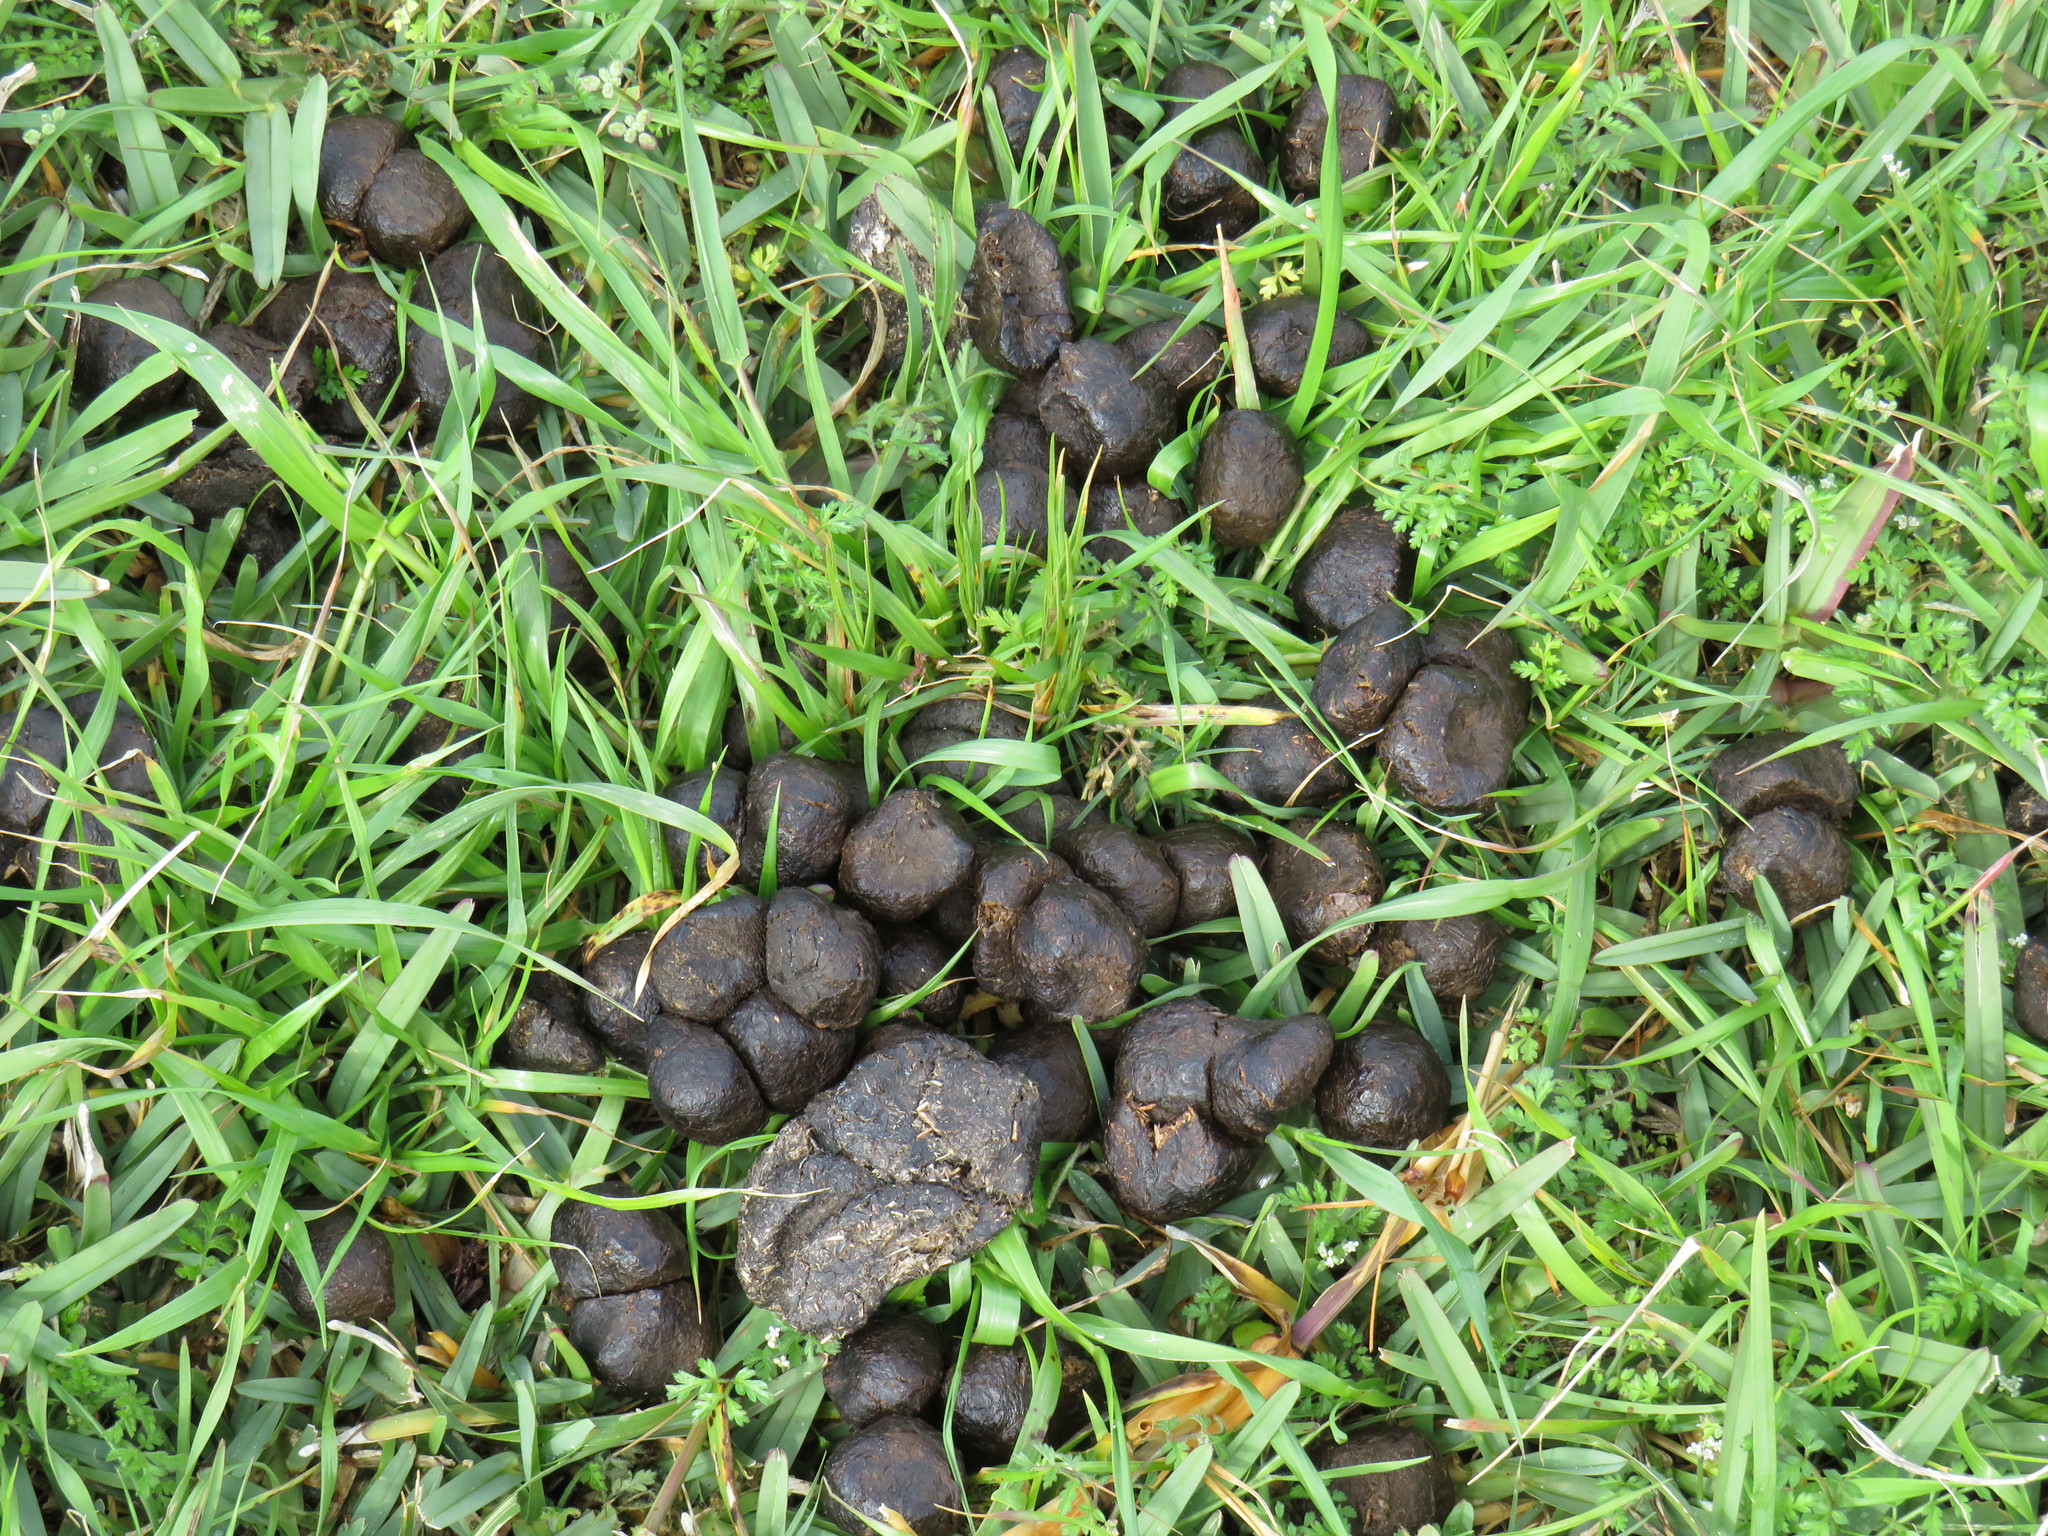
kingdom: Animalia
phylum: Chordata
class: Mammalia
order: Artiodactyla
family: Bovidae
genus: Taurotragus
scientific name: Taurotragus oryx
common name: Common eland
